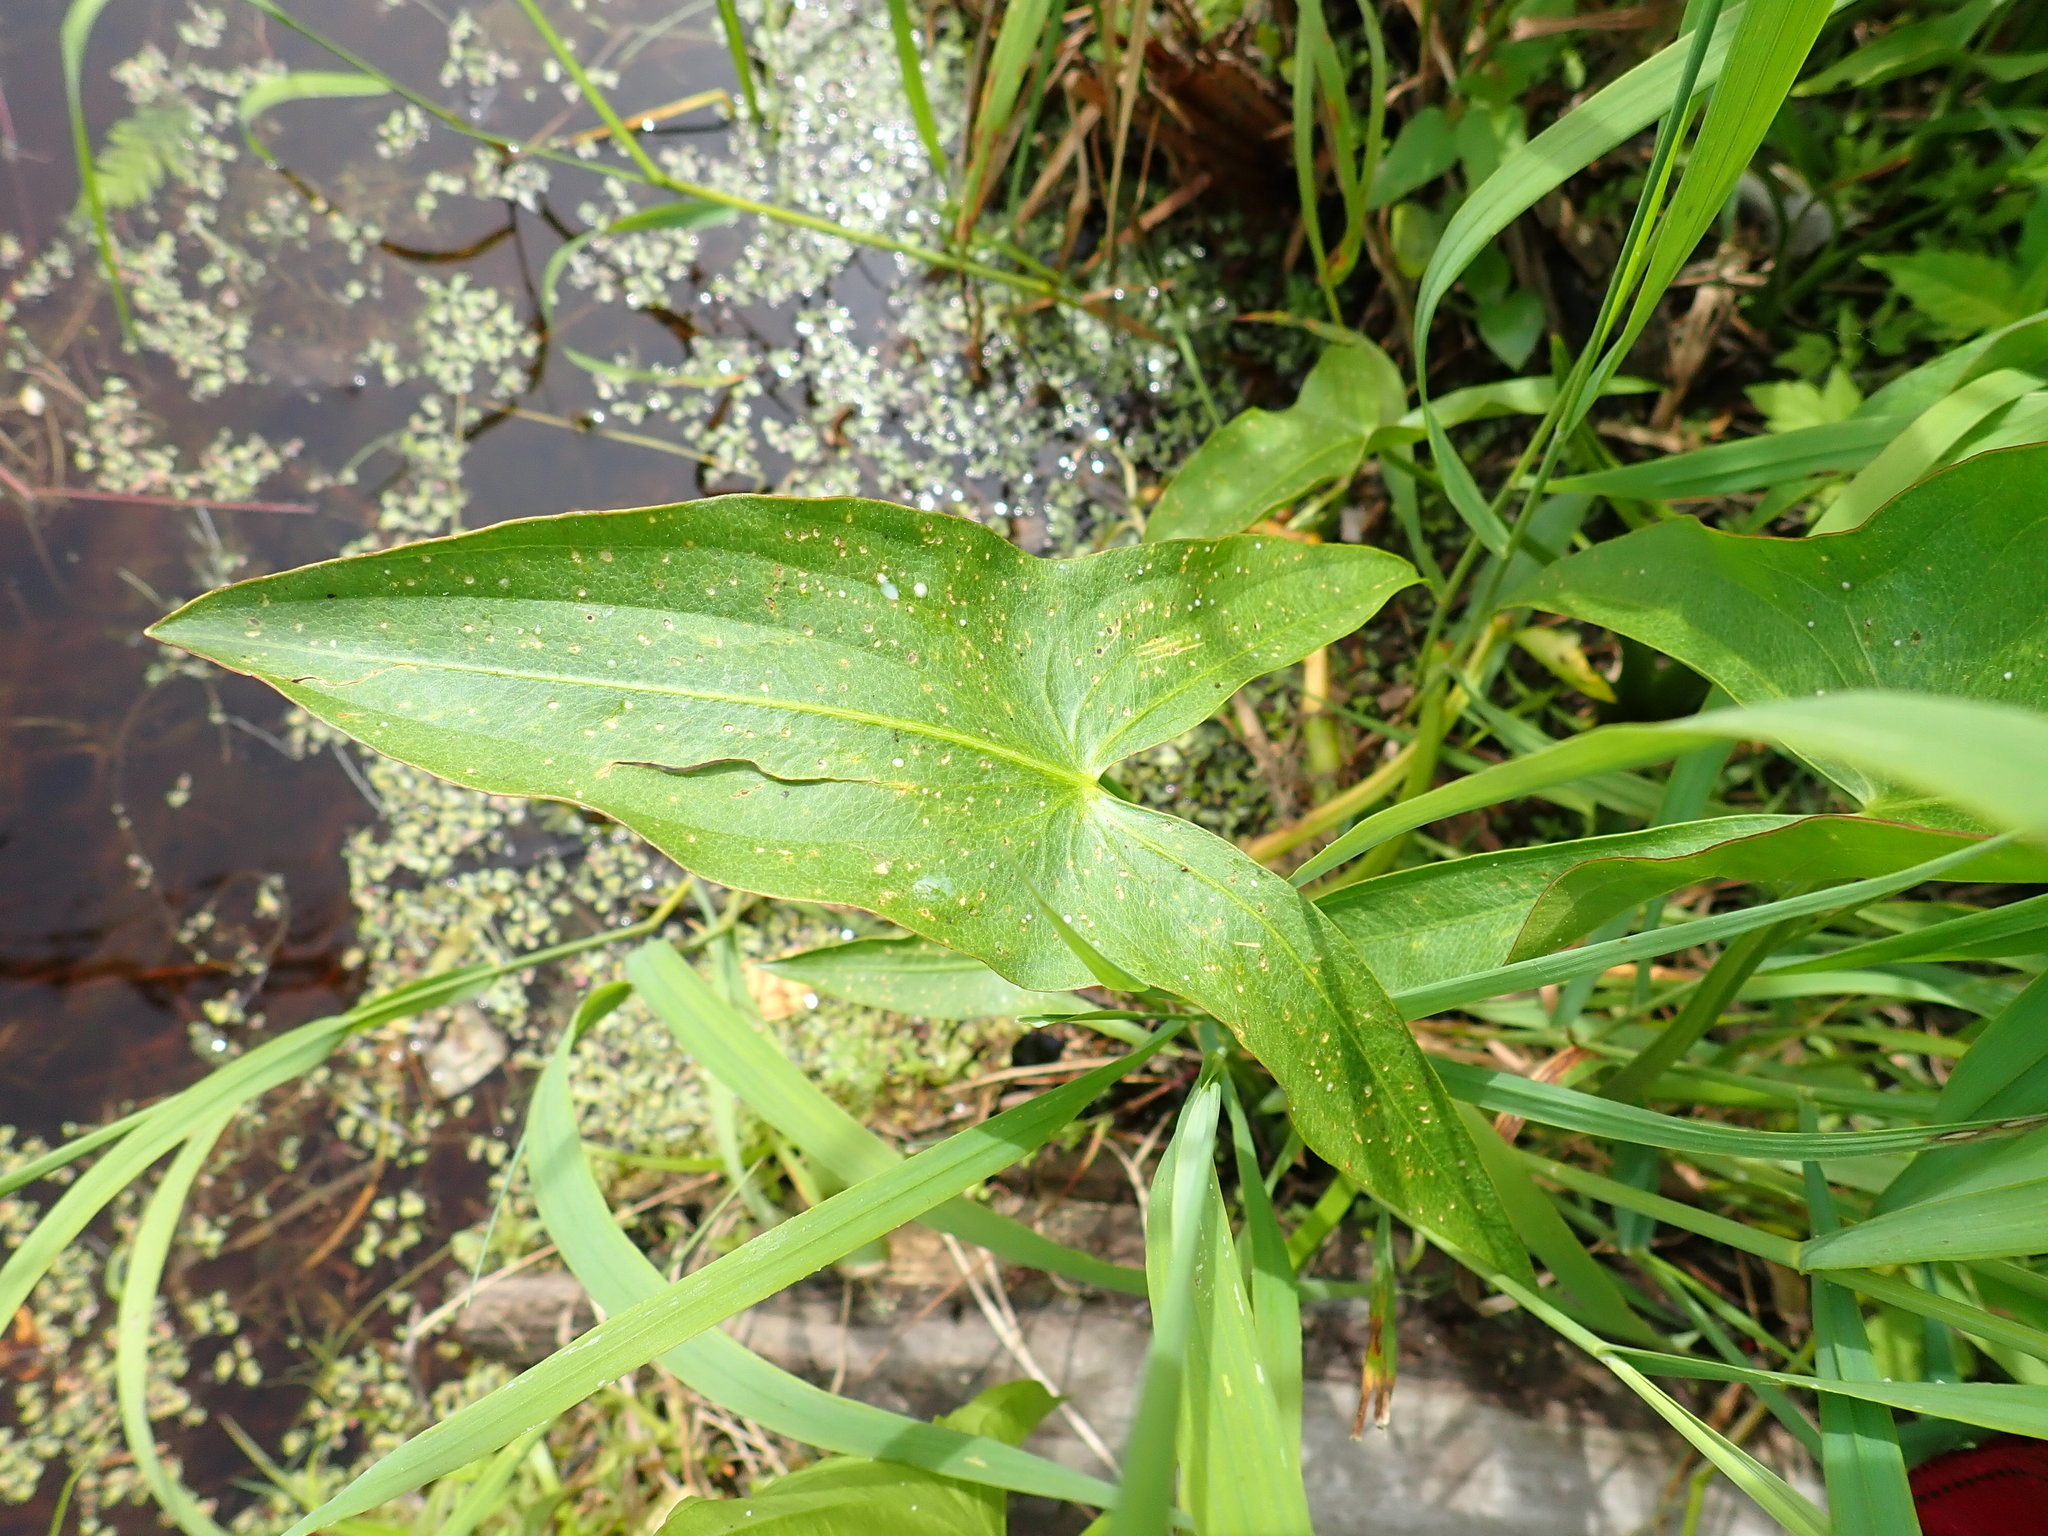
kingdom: Plantae
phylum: Tracheophyta
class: Liliopsida
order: Alismatales
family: Alismataceae
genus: Sagittaria
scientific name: Sagittaria latifolia
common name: Duck-potato
